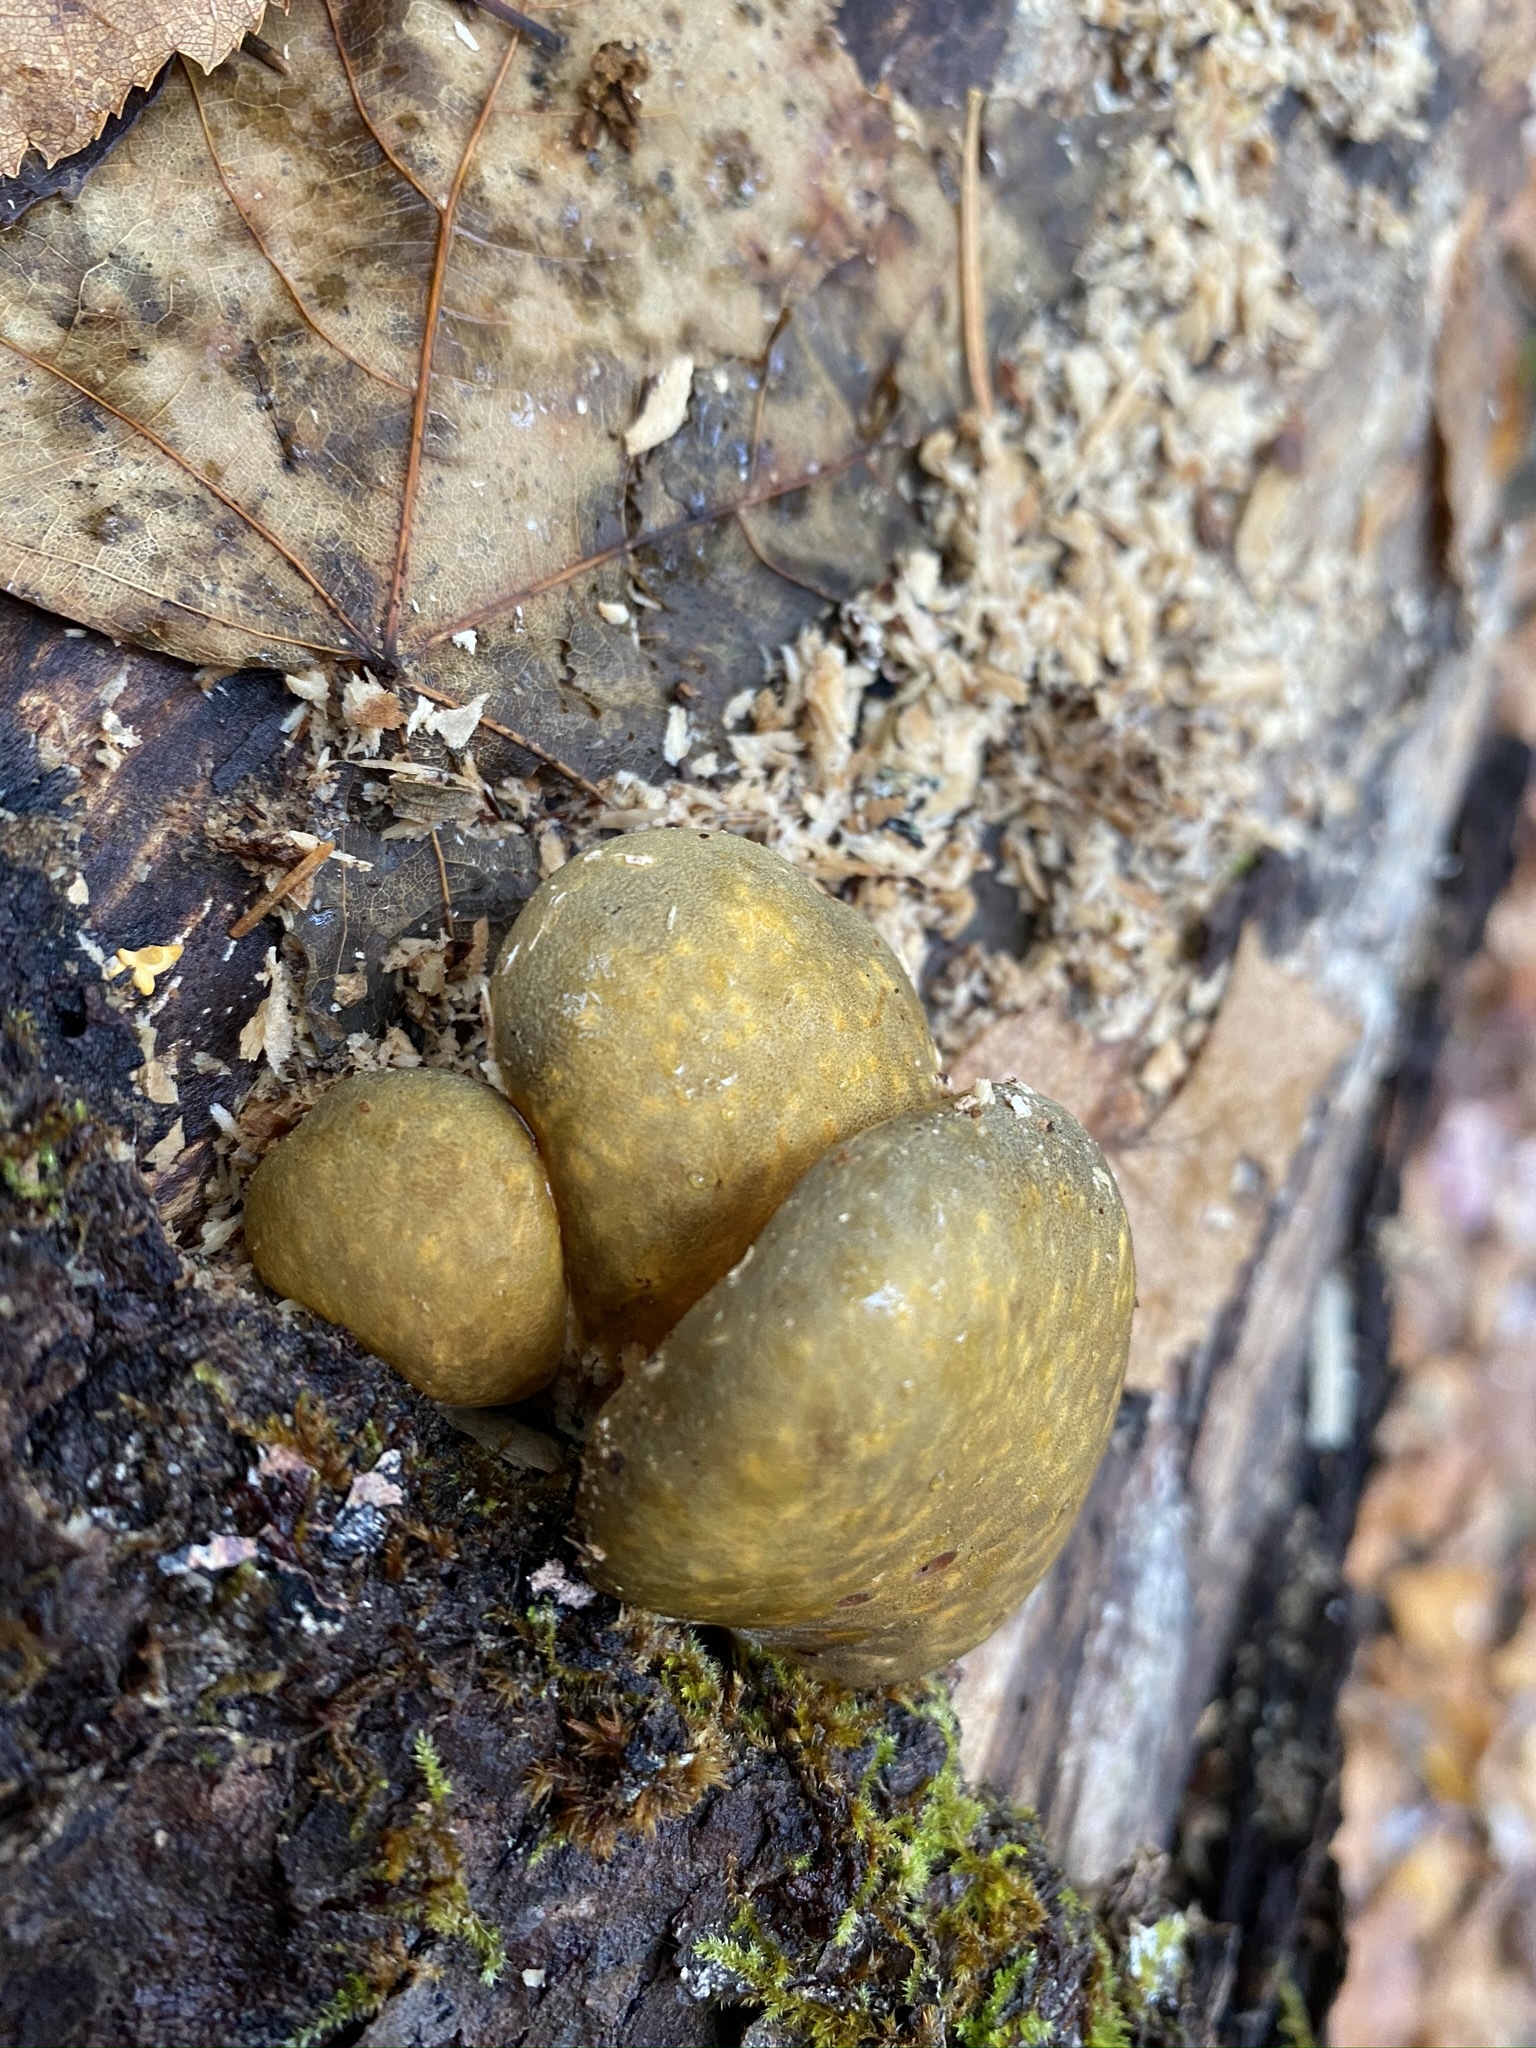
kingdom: Fungi
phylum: Basidiomycota
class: Agaricomycetes
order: Agaricales
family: Sarcomyxaceae
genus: Sarcomyxa
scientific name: Sarcomyxa serotina
